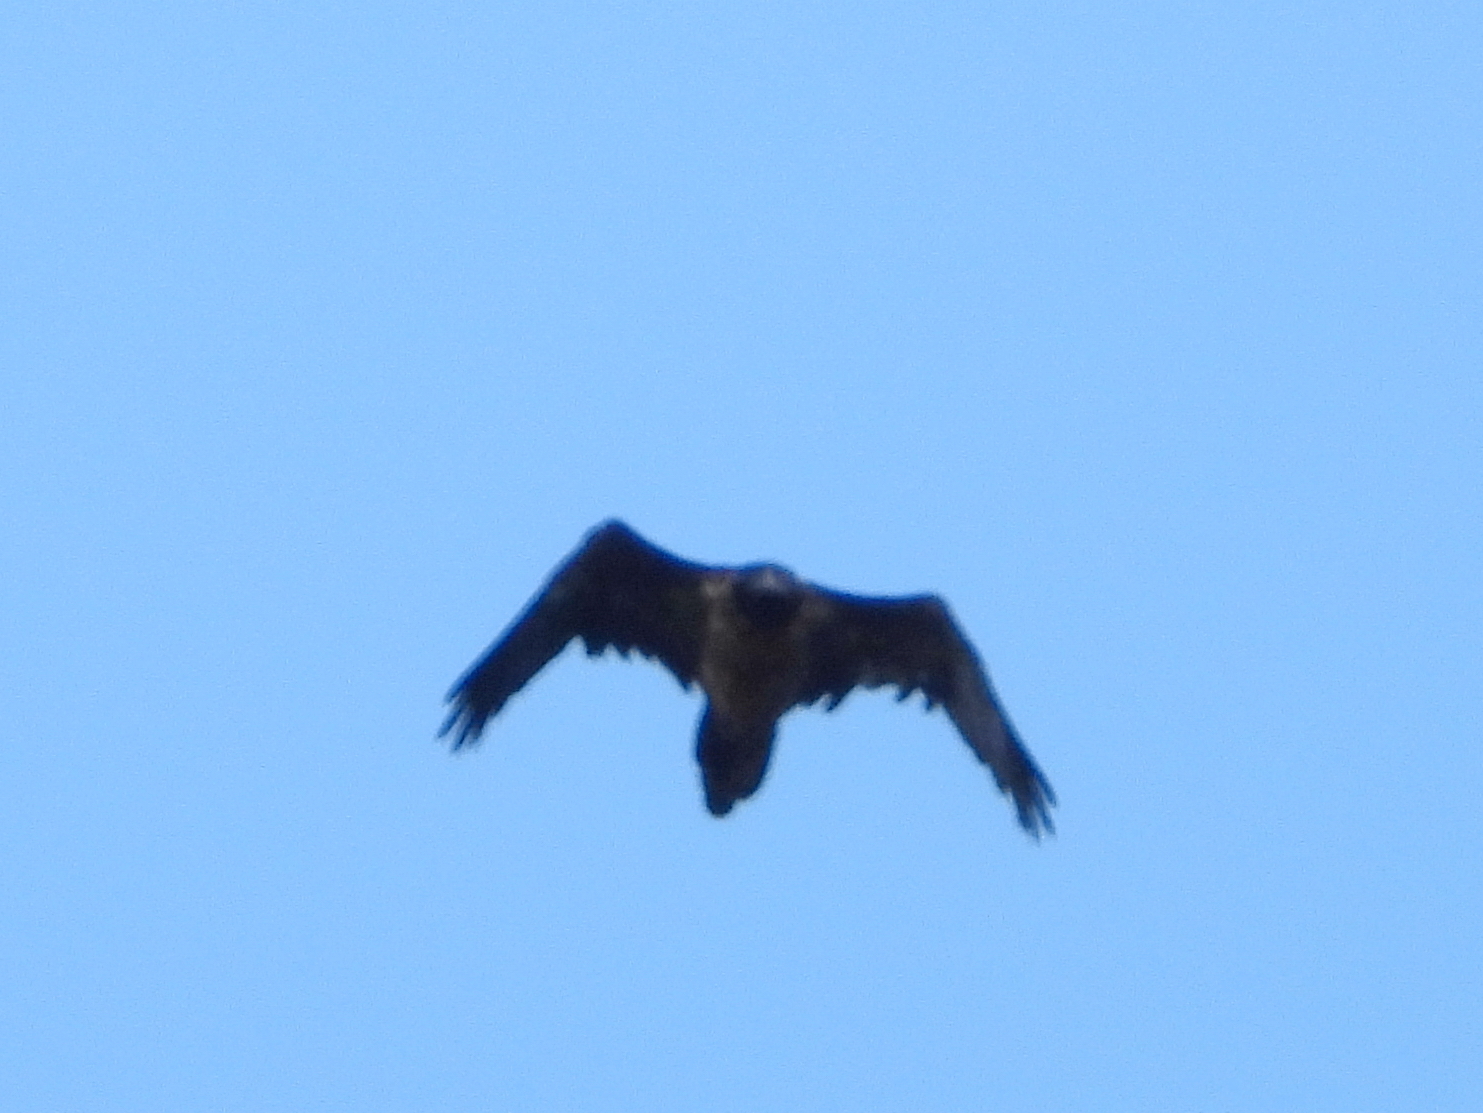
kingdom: Animalia
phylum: Chordata
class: Aves
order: Accipitriformes
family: Accipitridae
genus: Gypaetus
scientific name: Gypaetus barbatus
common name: Bearded vulture
